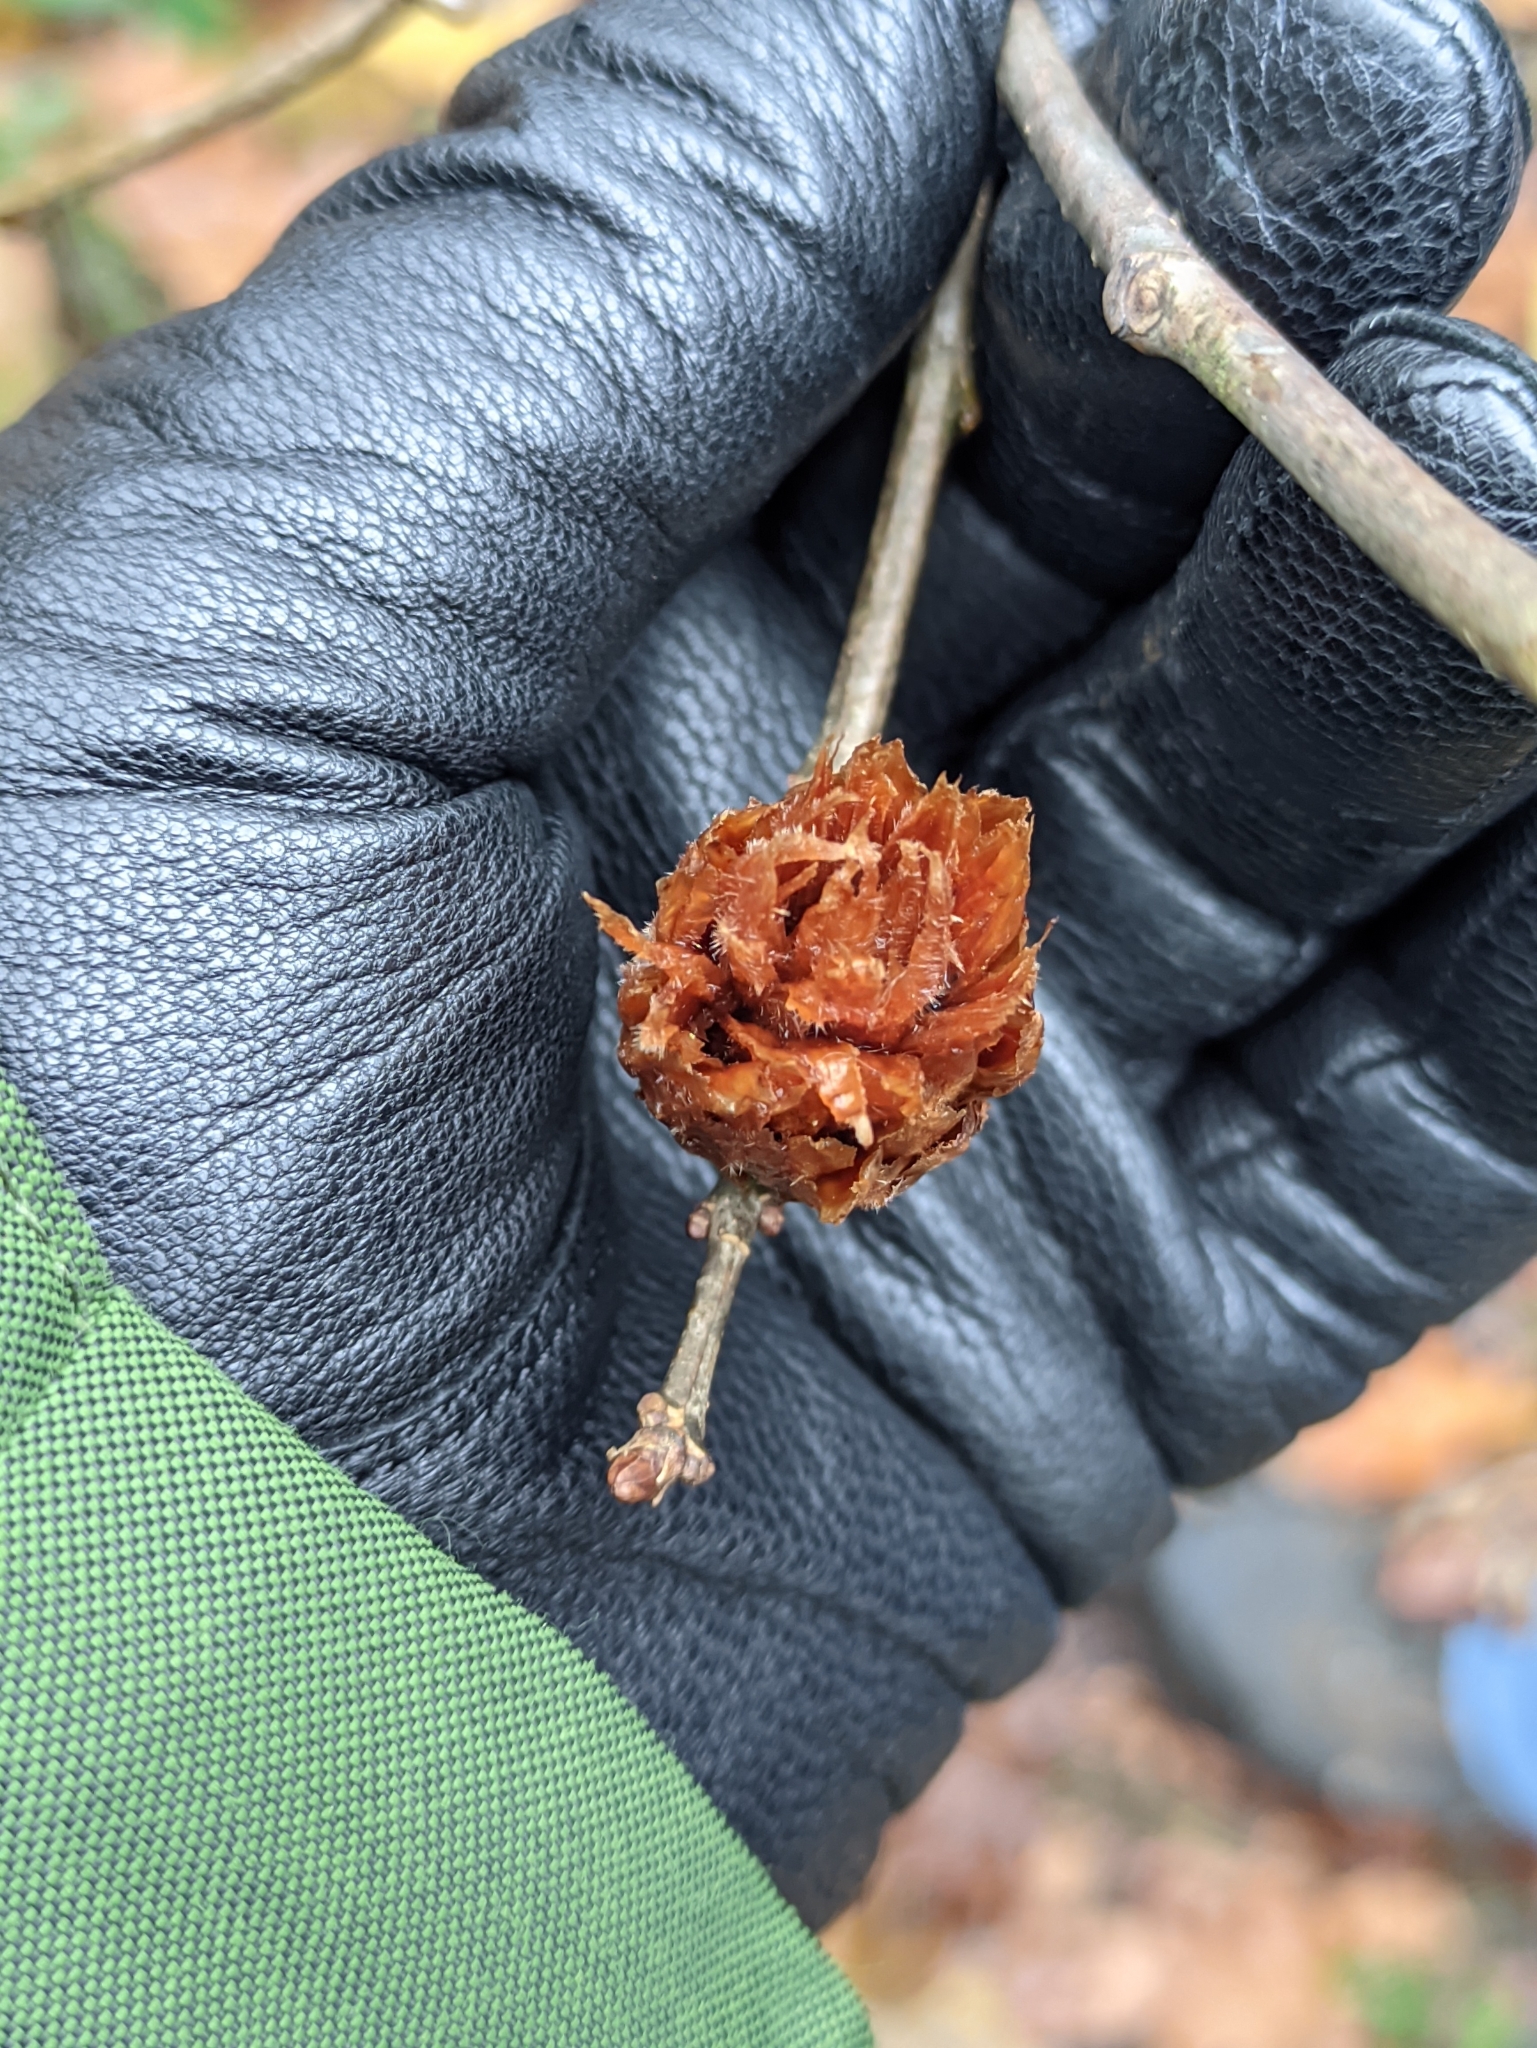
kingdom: Animalia
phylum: Arthropoda
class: Insecta
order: Hymenoptera
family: Cynipidae
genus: Andricus
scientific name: Andricus foecundatrix
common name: Artichoke gall
